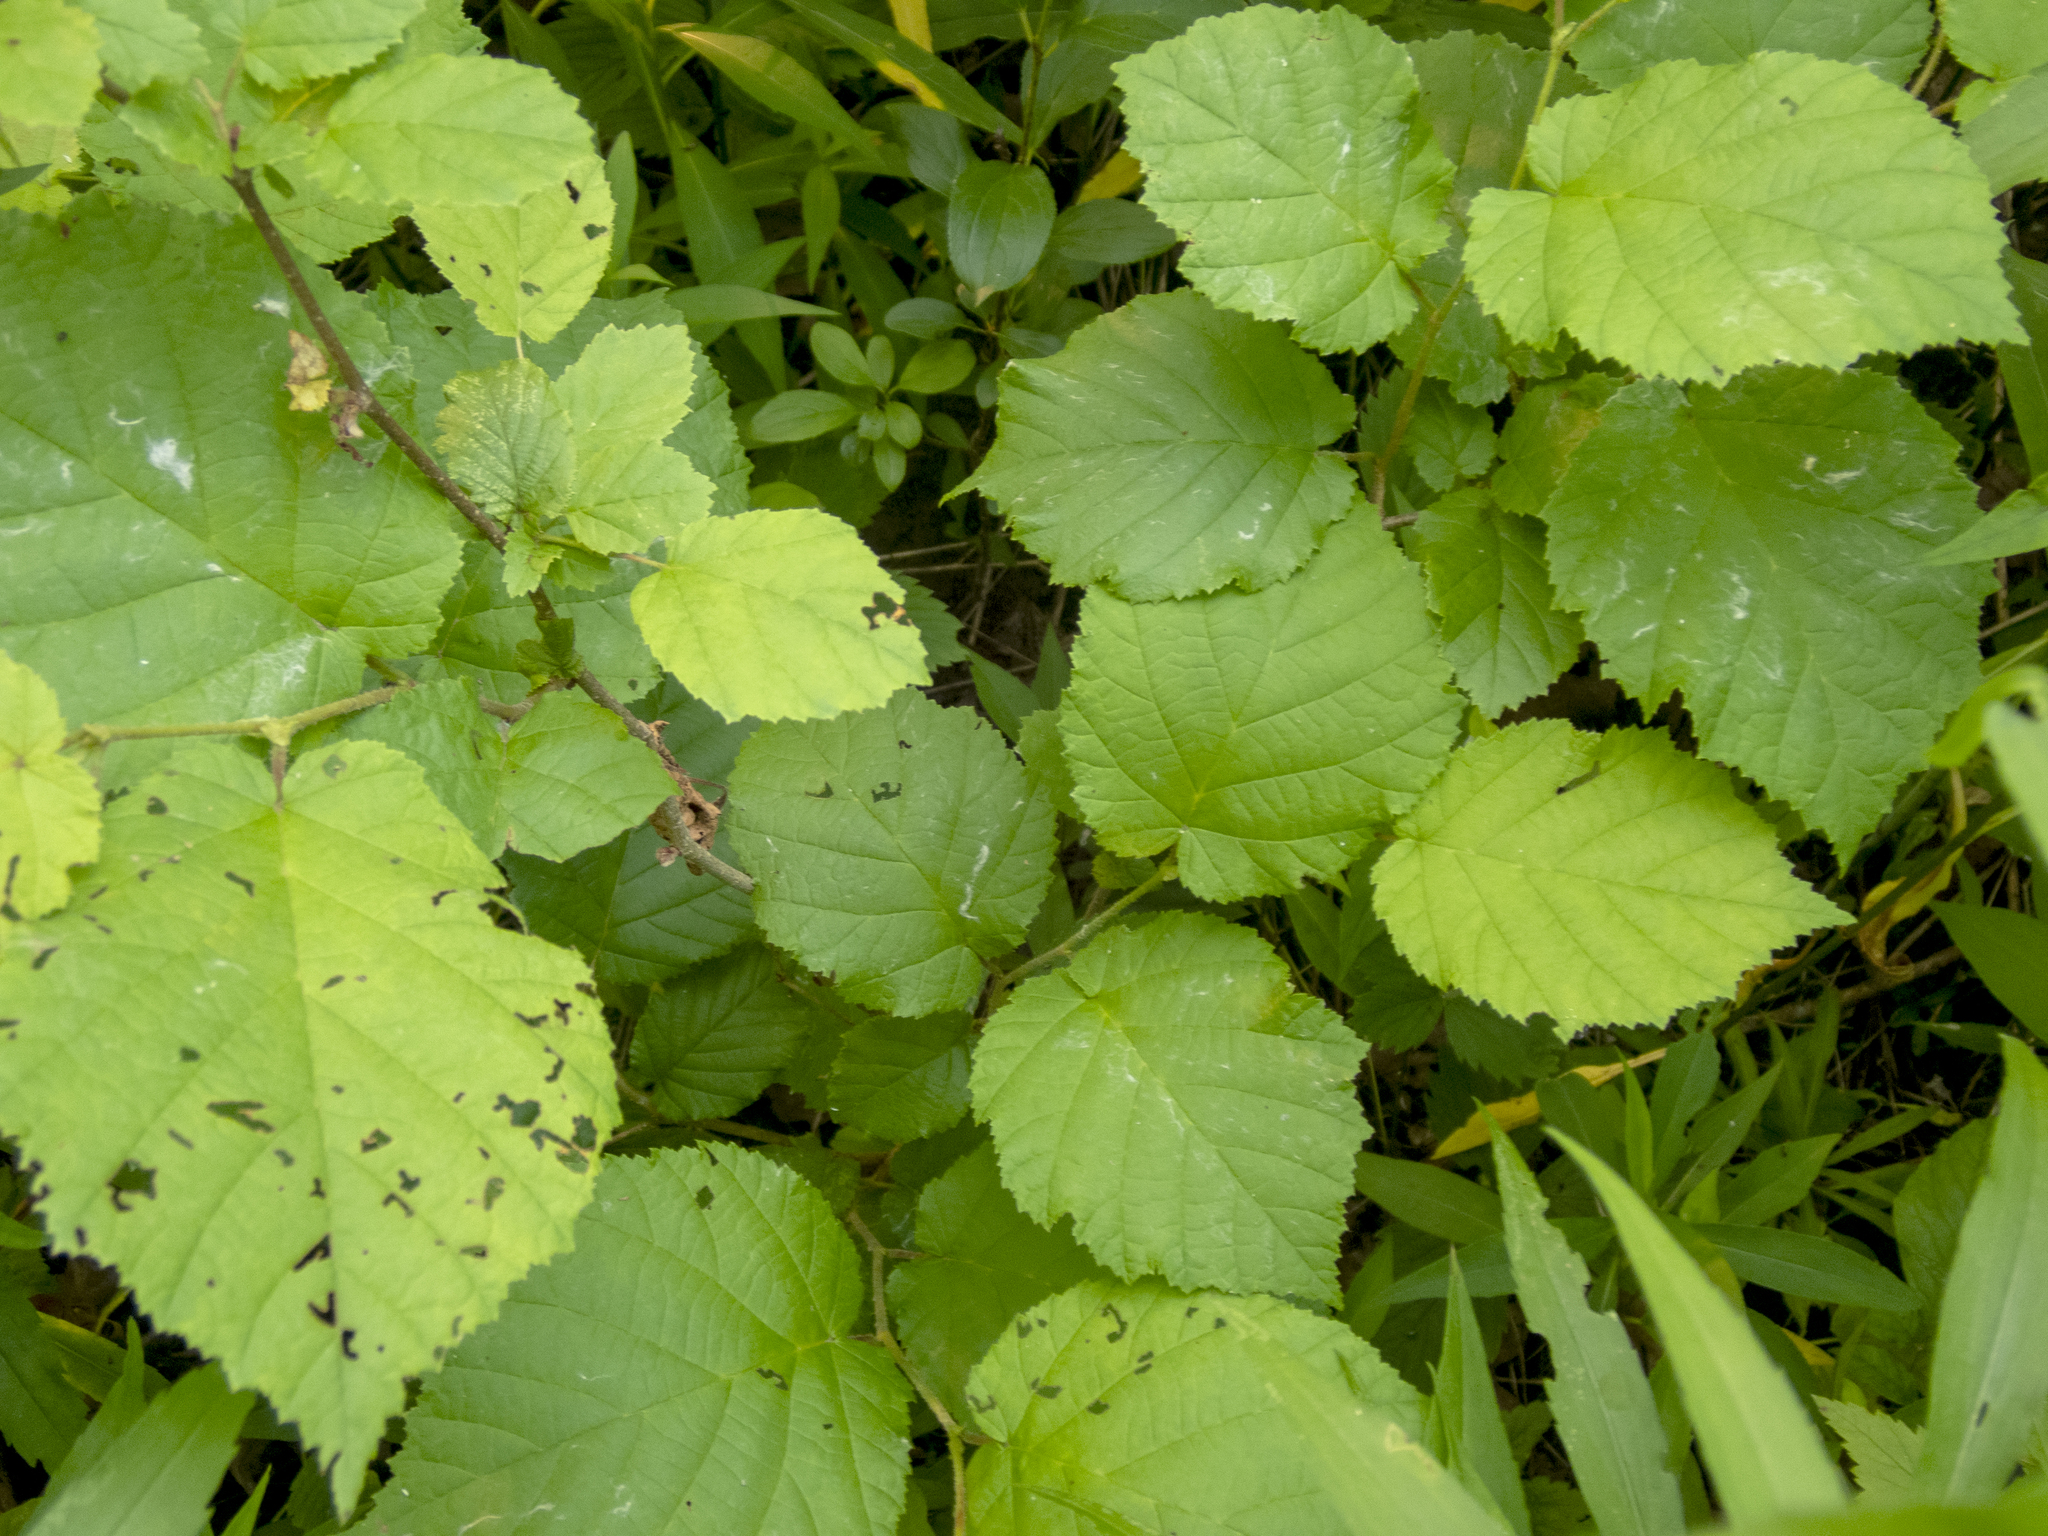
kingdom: Plantae
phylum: Tracheophyta
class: Magnoliopsida
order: Fagales
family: Betulaceae
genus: Corylus
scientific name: Corylus americana
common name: American hazel
